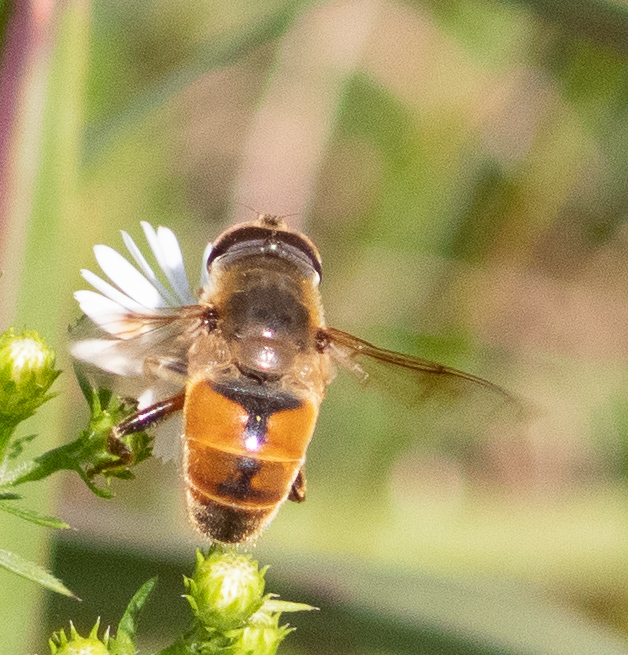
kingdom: Animalia
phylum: Arthropoda
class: Insecta
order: Diptera
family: Syrphidae
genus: Eristalis
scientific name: Eristalis tenax
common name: Drone fly
